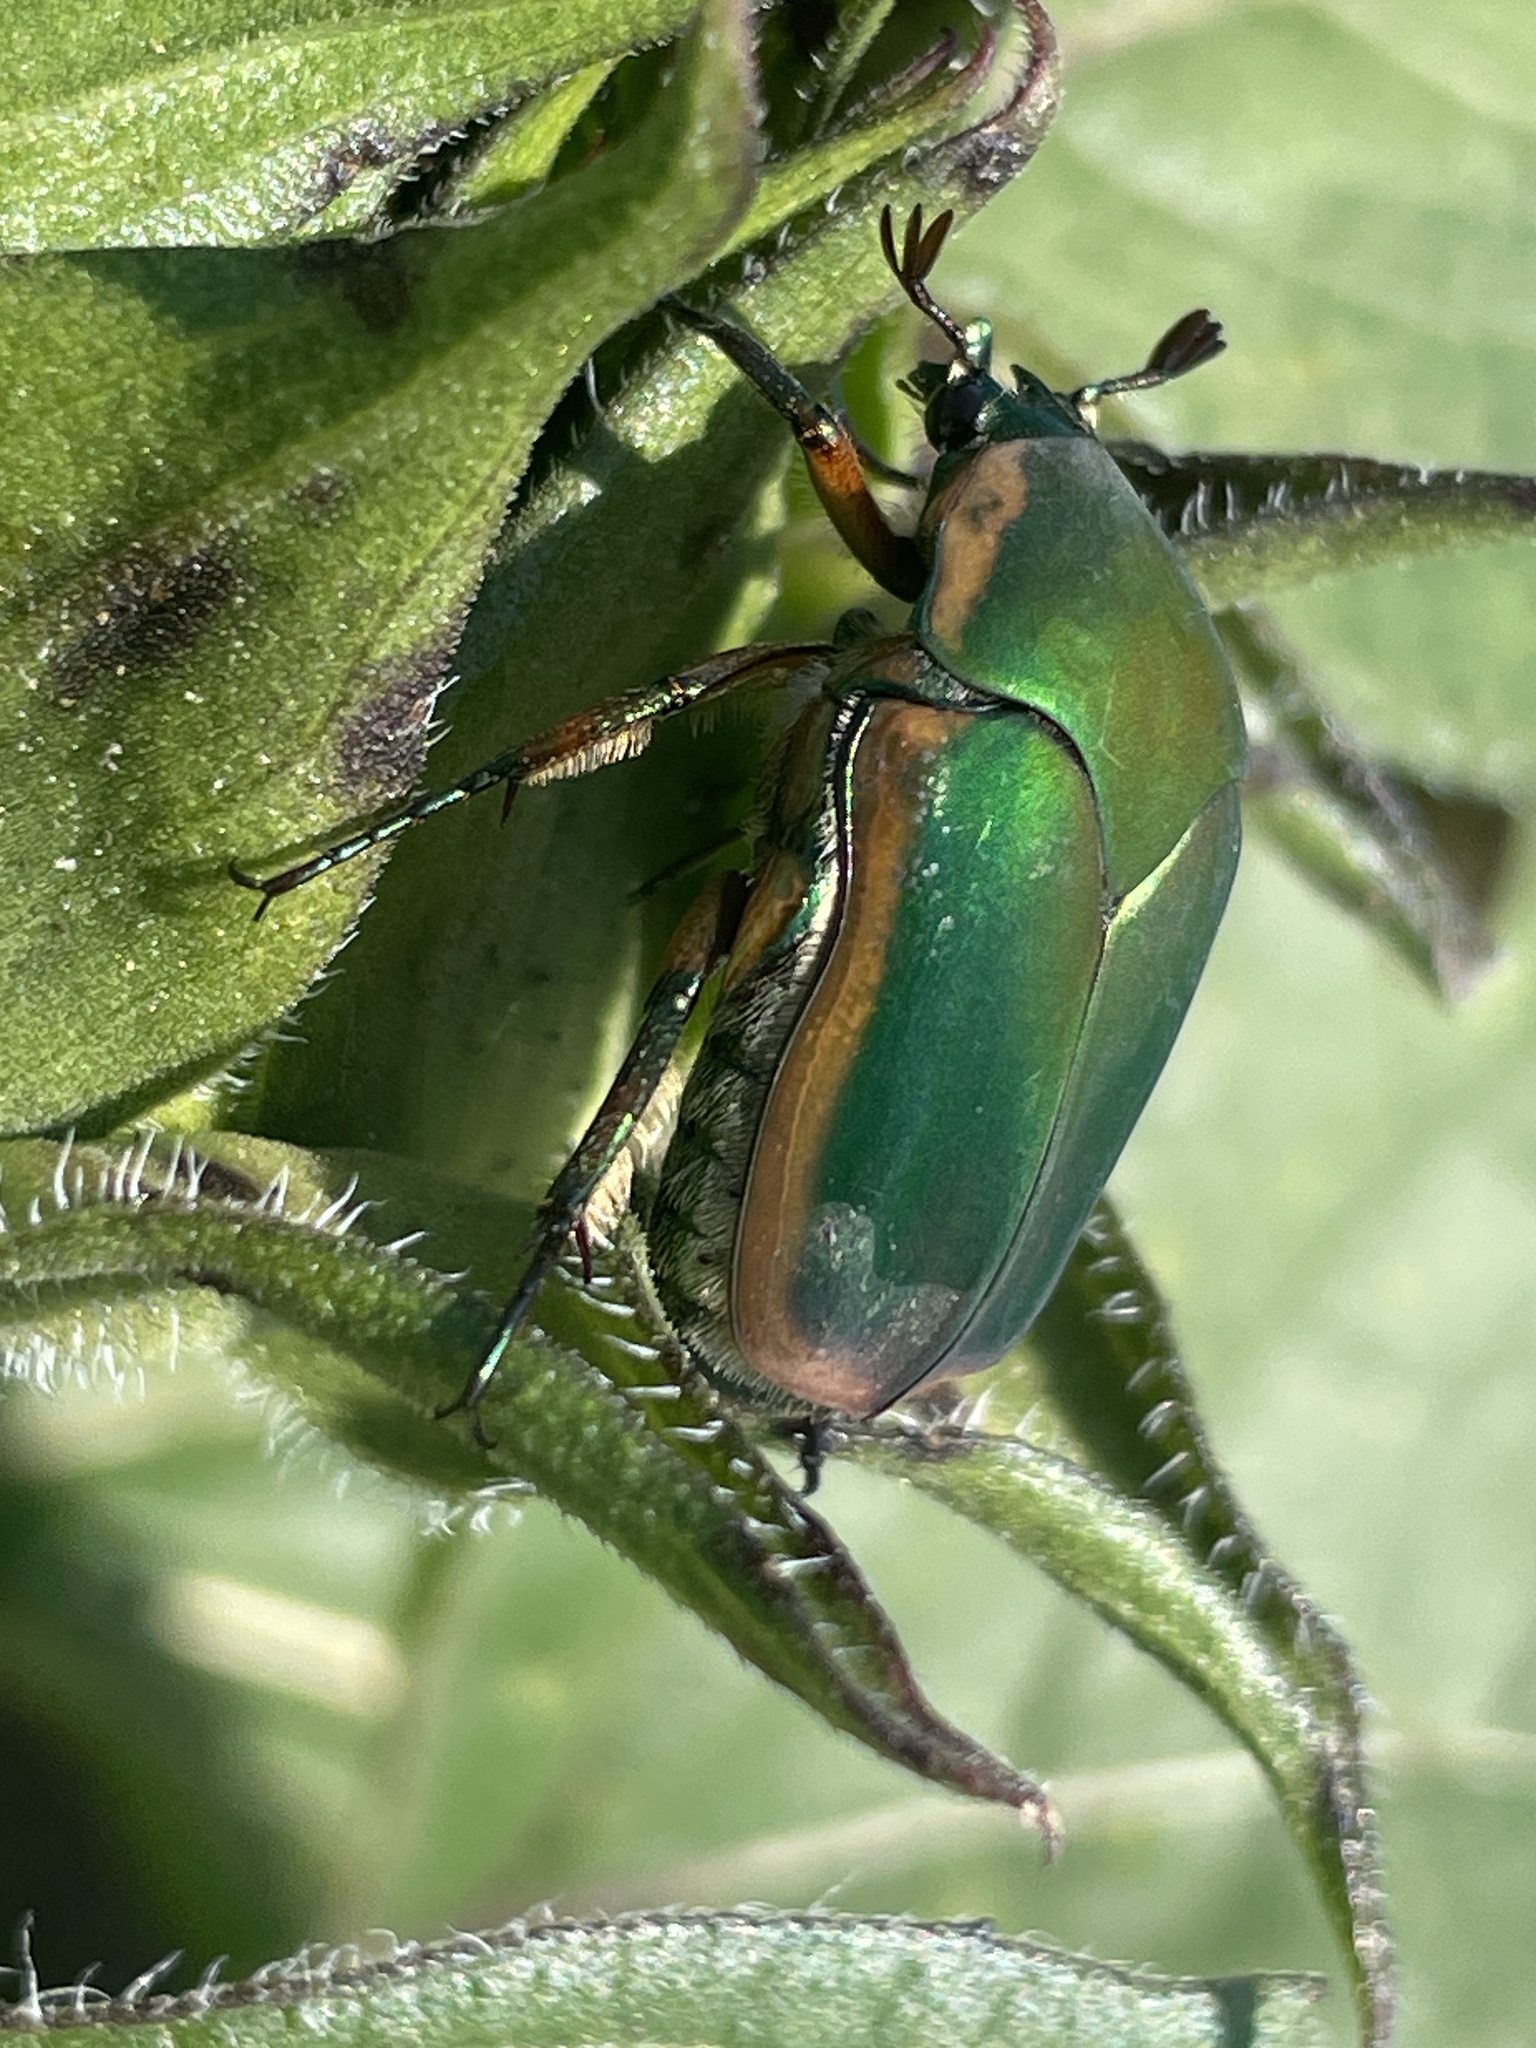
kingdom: Animalia
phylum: Arthropoda
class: Insecta
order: Coleoptera
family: Scarabaeidae
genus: Cotinis
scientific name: Cotinis nitida
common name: Common green june beetle
